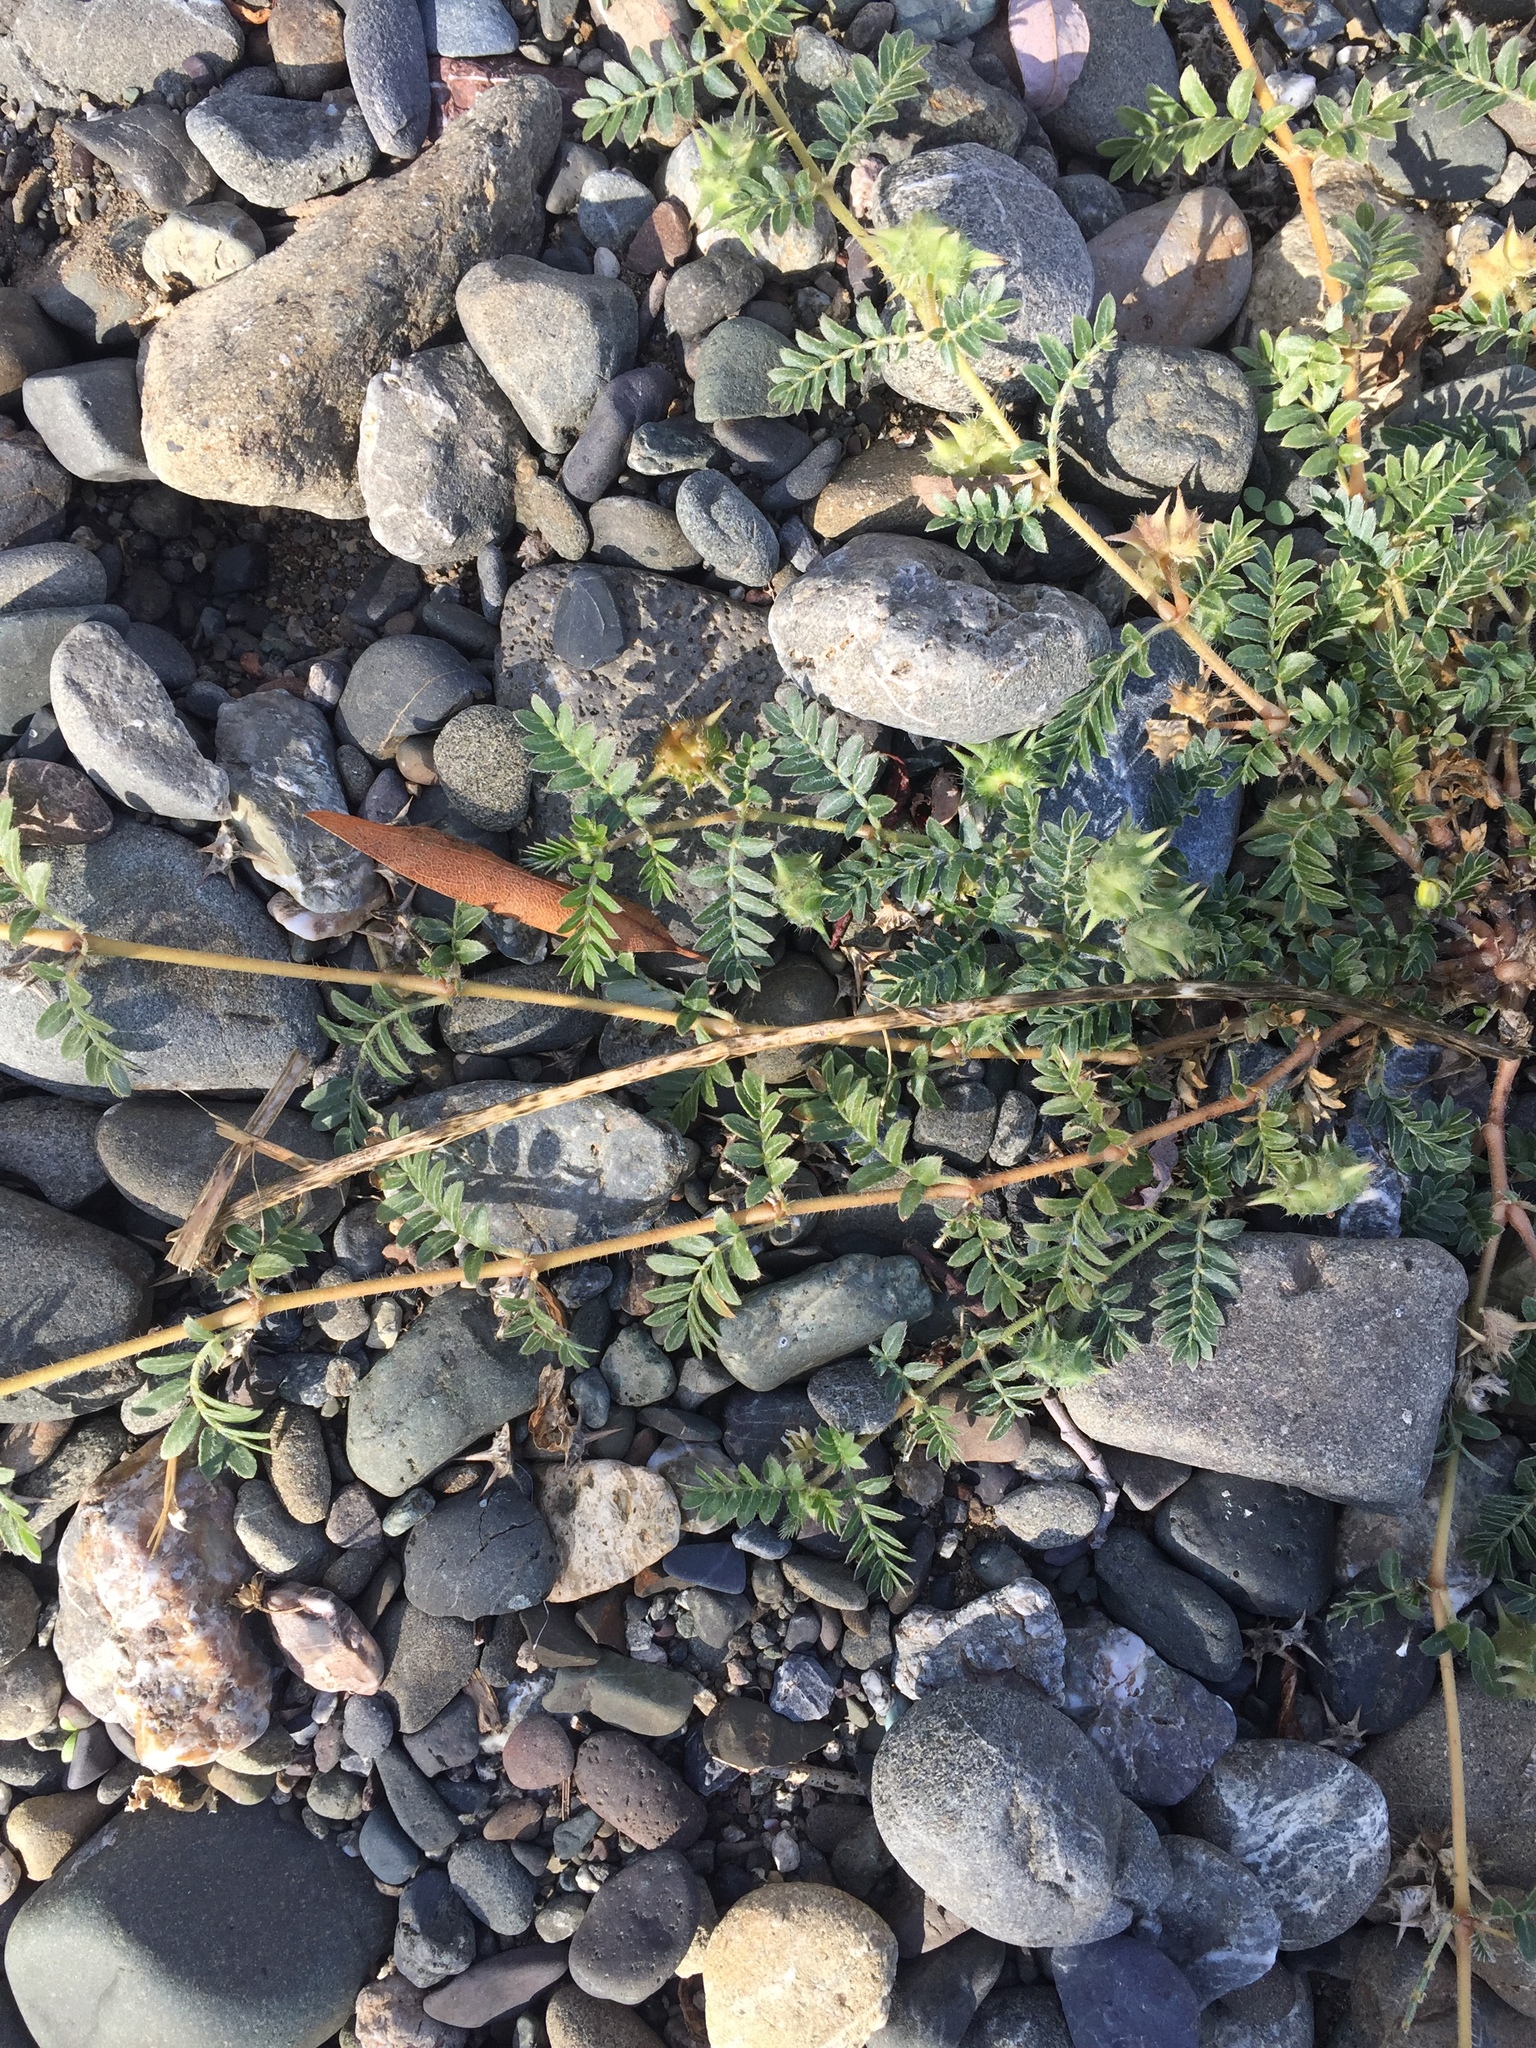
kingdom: Plantae
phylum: Tracheophyta
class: Magnoliopsida
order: Zygophyllales
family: Zygophyllaceae
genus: Tribulus
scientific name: Tribulus terrestris
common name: Puncturevine
